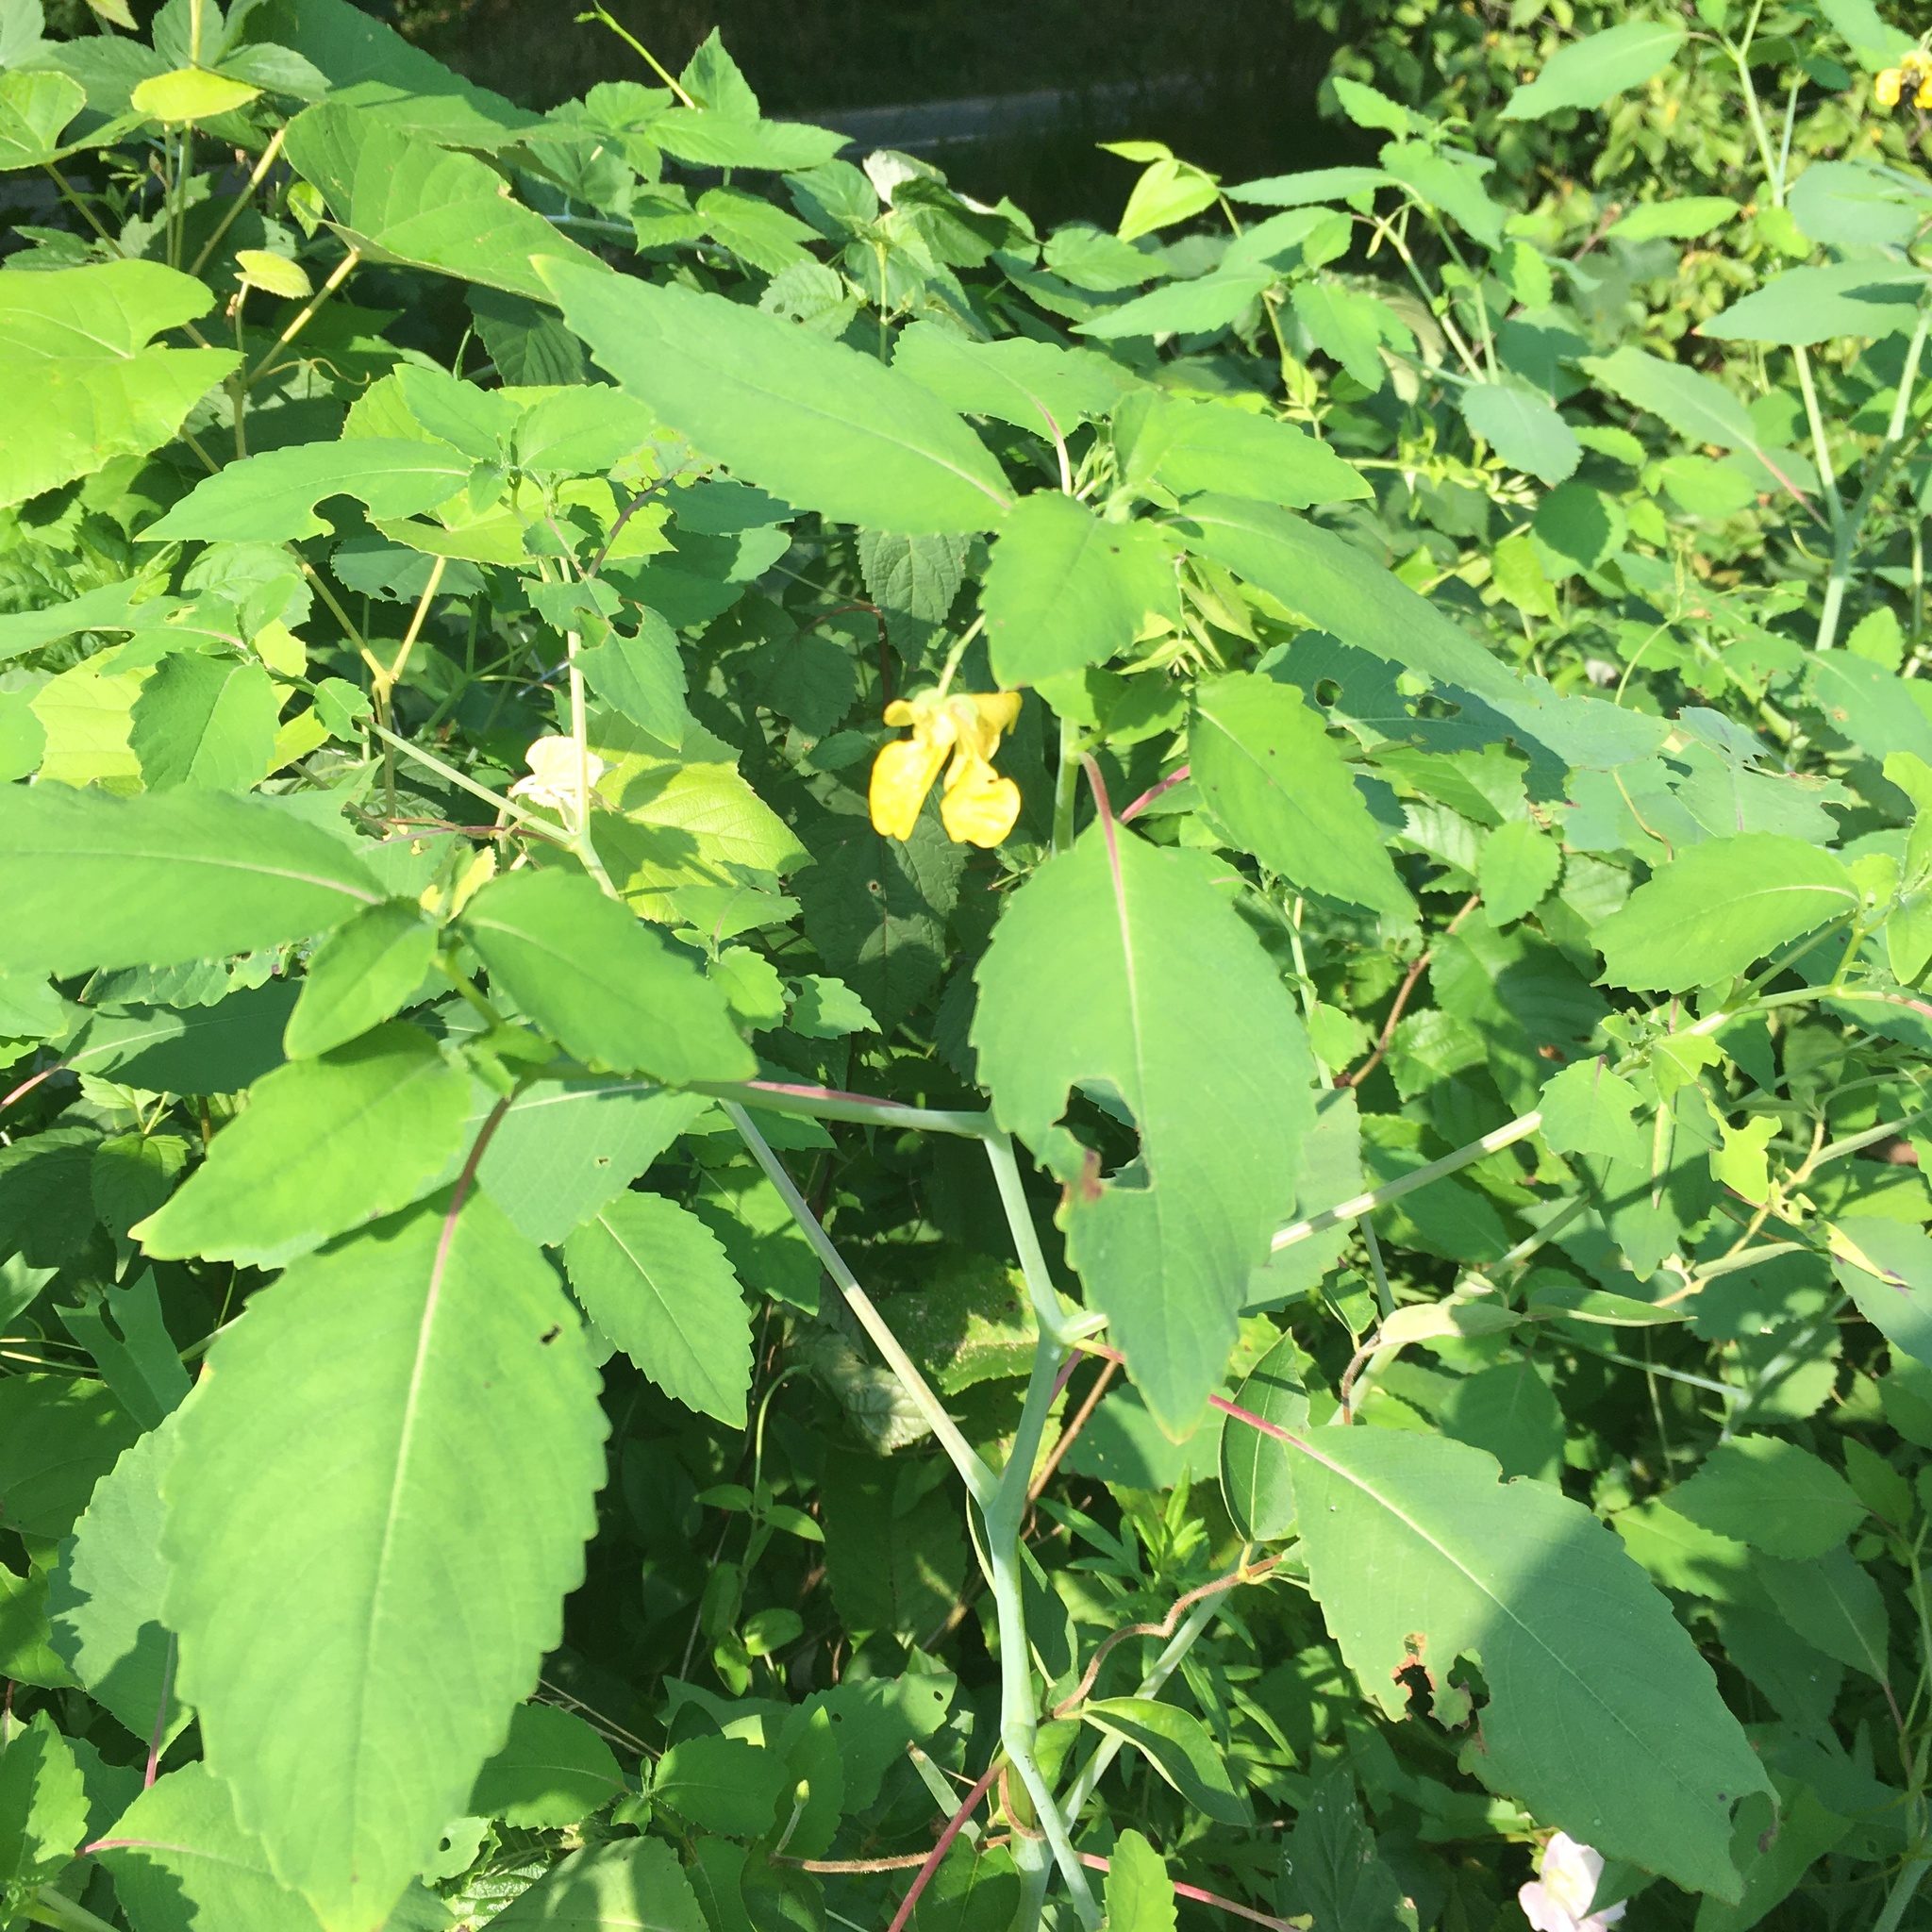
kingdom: Plantae
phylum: Tracheophyta
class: Magnoliopsida
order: Ericales
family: Balsaminaceae
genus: Impatiens
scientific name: Impatiens pallida
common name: Pale snapweed
